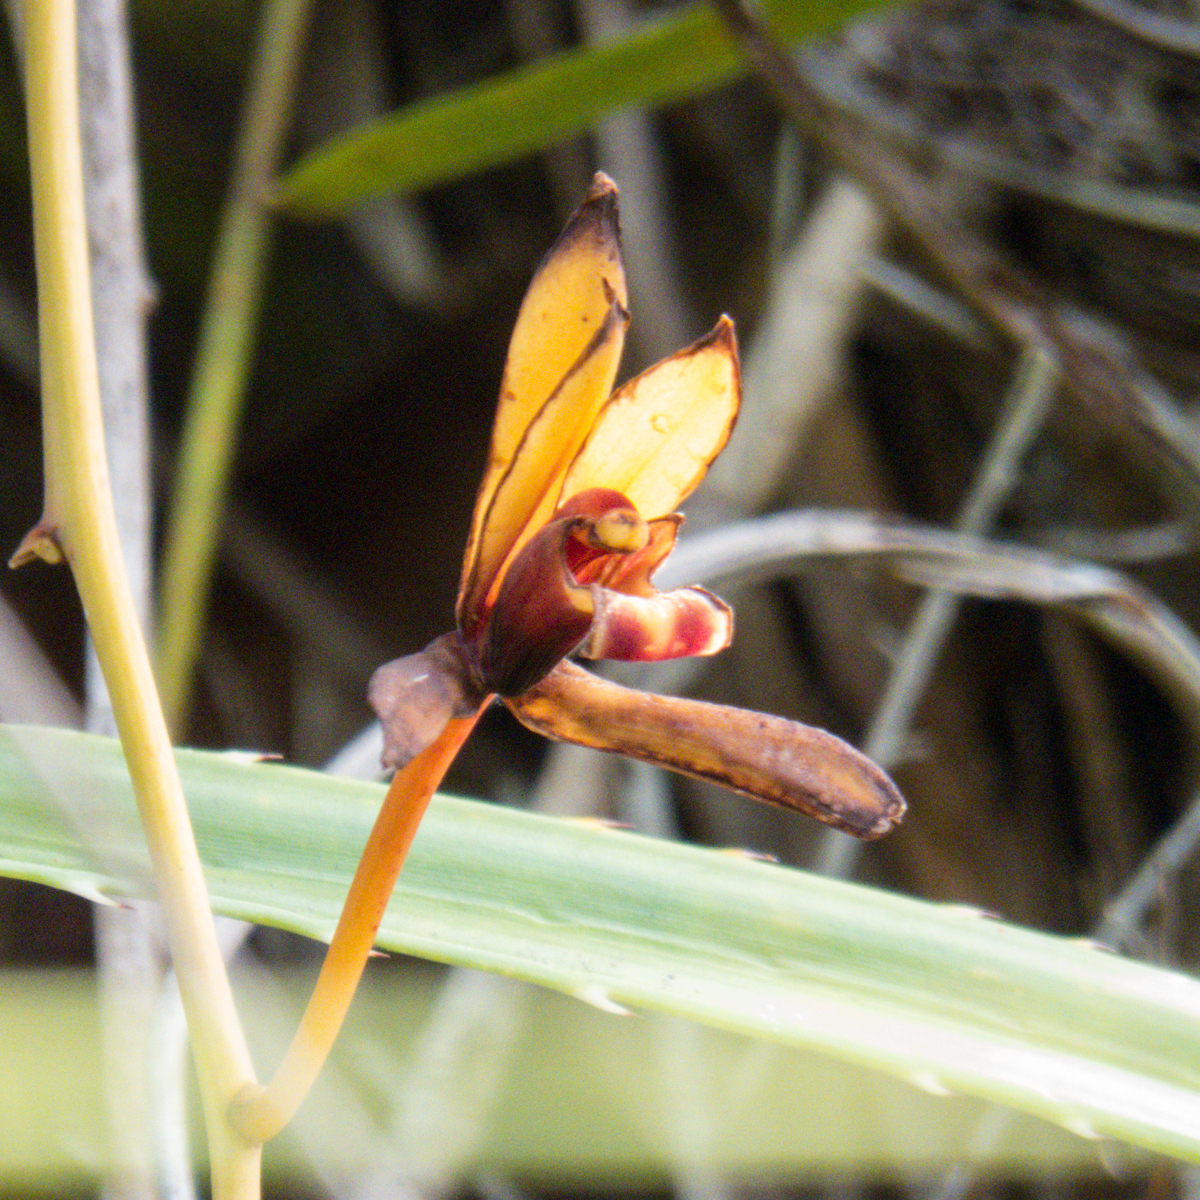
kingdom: Plantae
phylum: Tracheophyta
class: Liliopsida
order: Asparagales
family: Orchidaceae
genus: Cymbidium
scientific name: Cymbidium finlaysonianum
